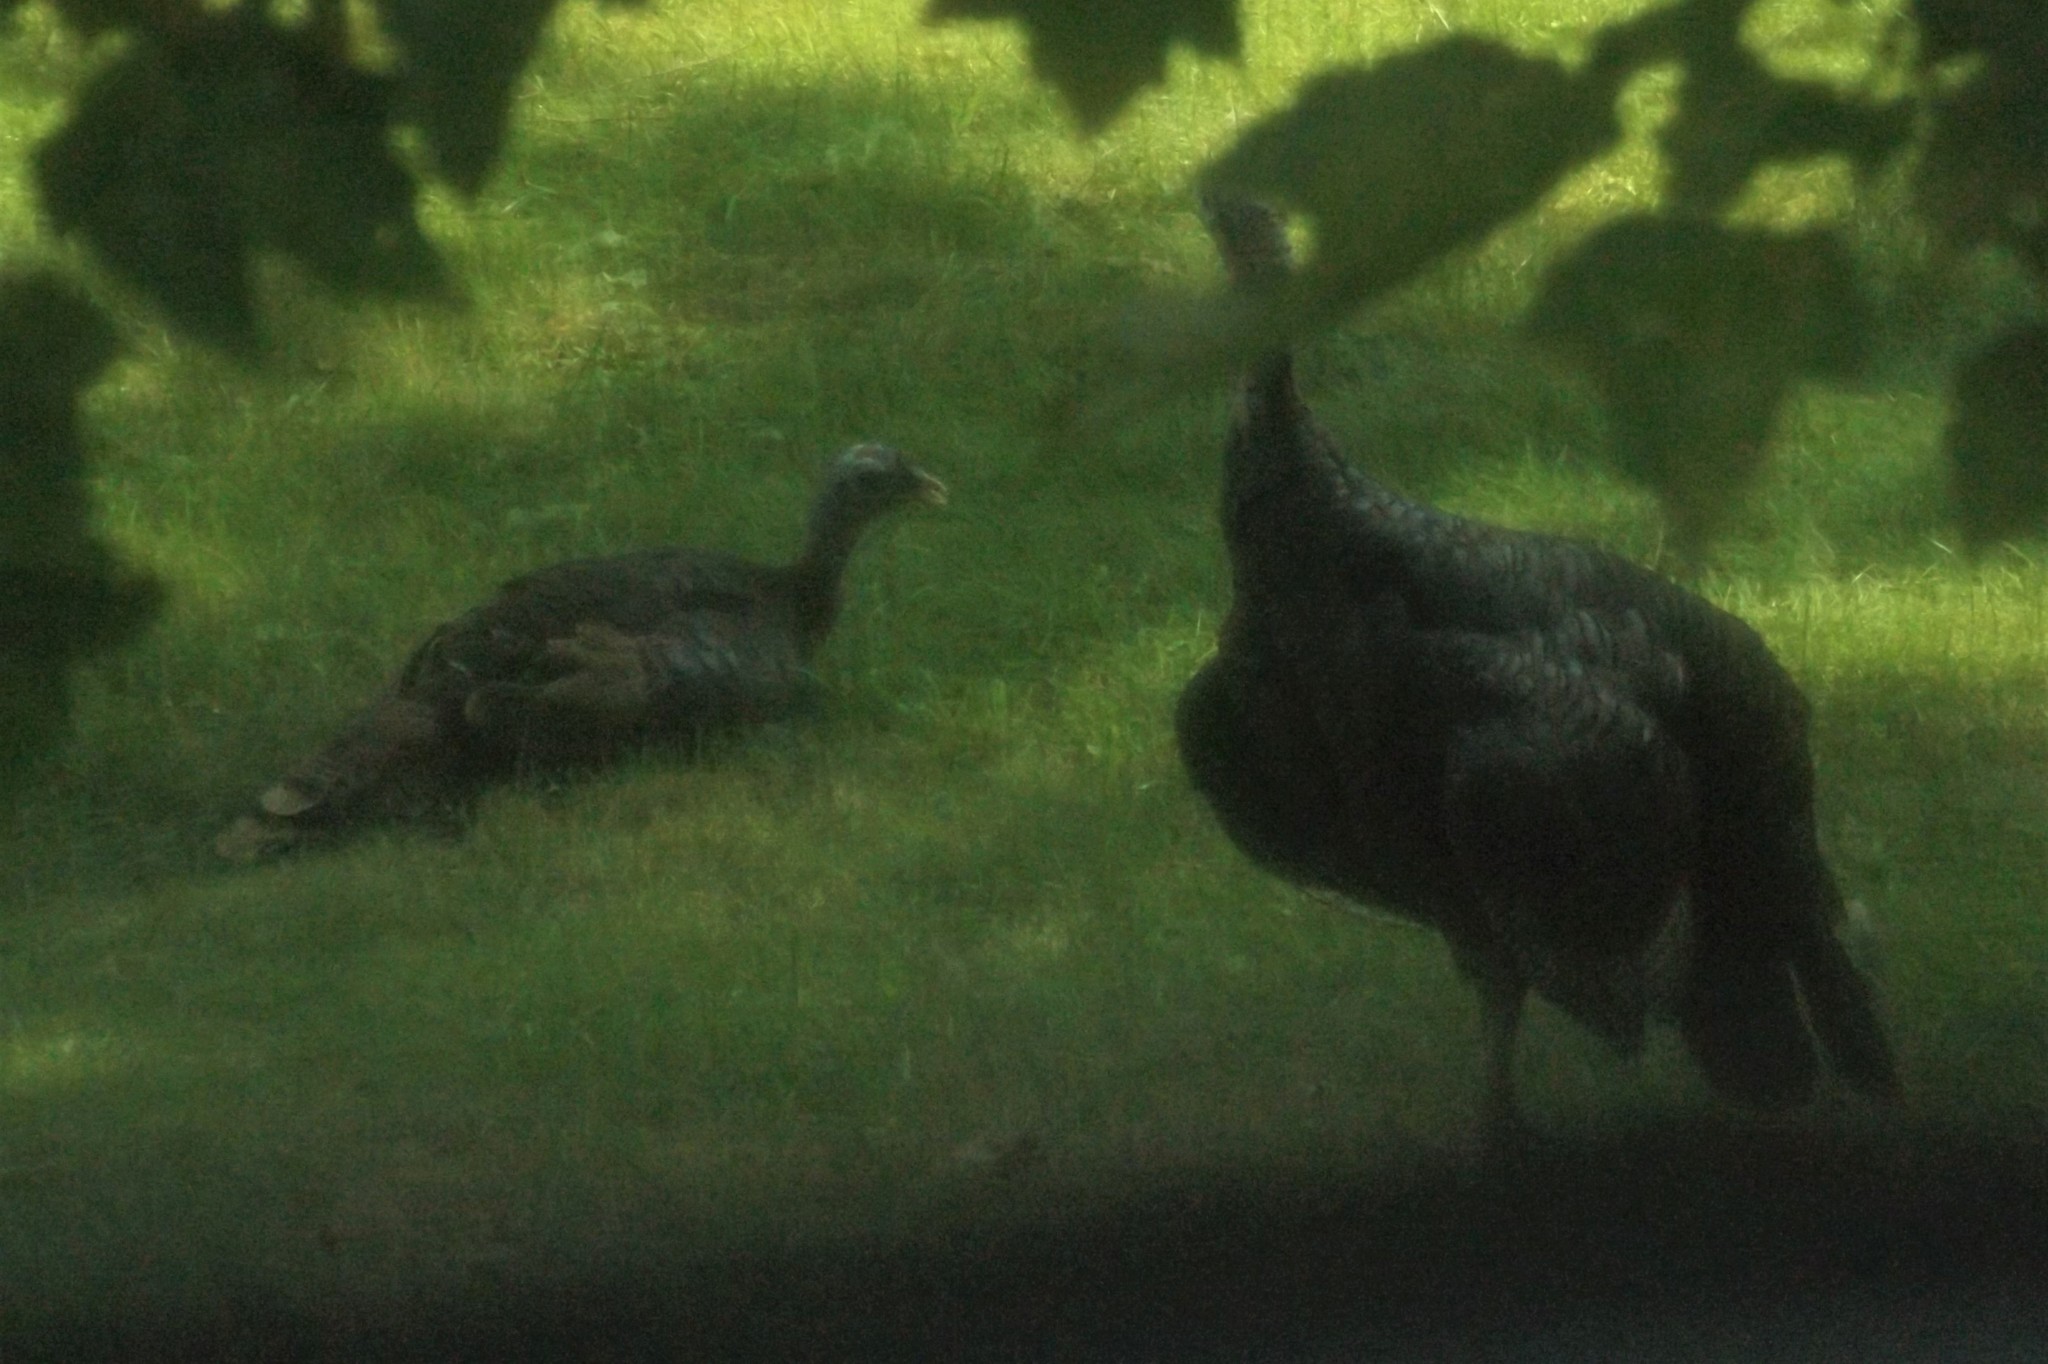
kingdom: Animalia
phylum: Chordata
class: Aves
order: Galliformes
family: Phasianidae
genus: Meleagris
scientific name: Meleagris gallopavo
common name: Wild turkey
